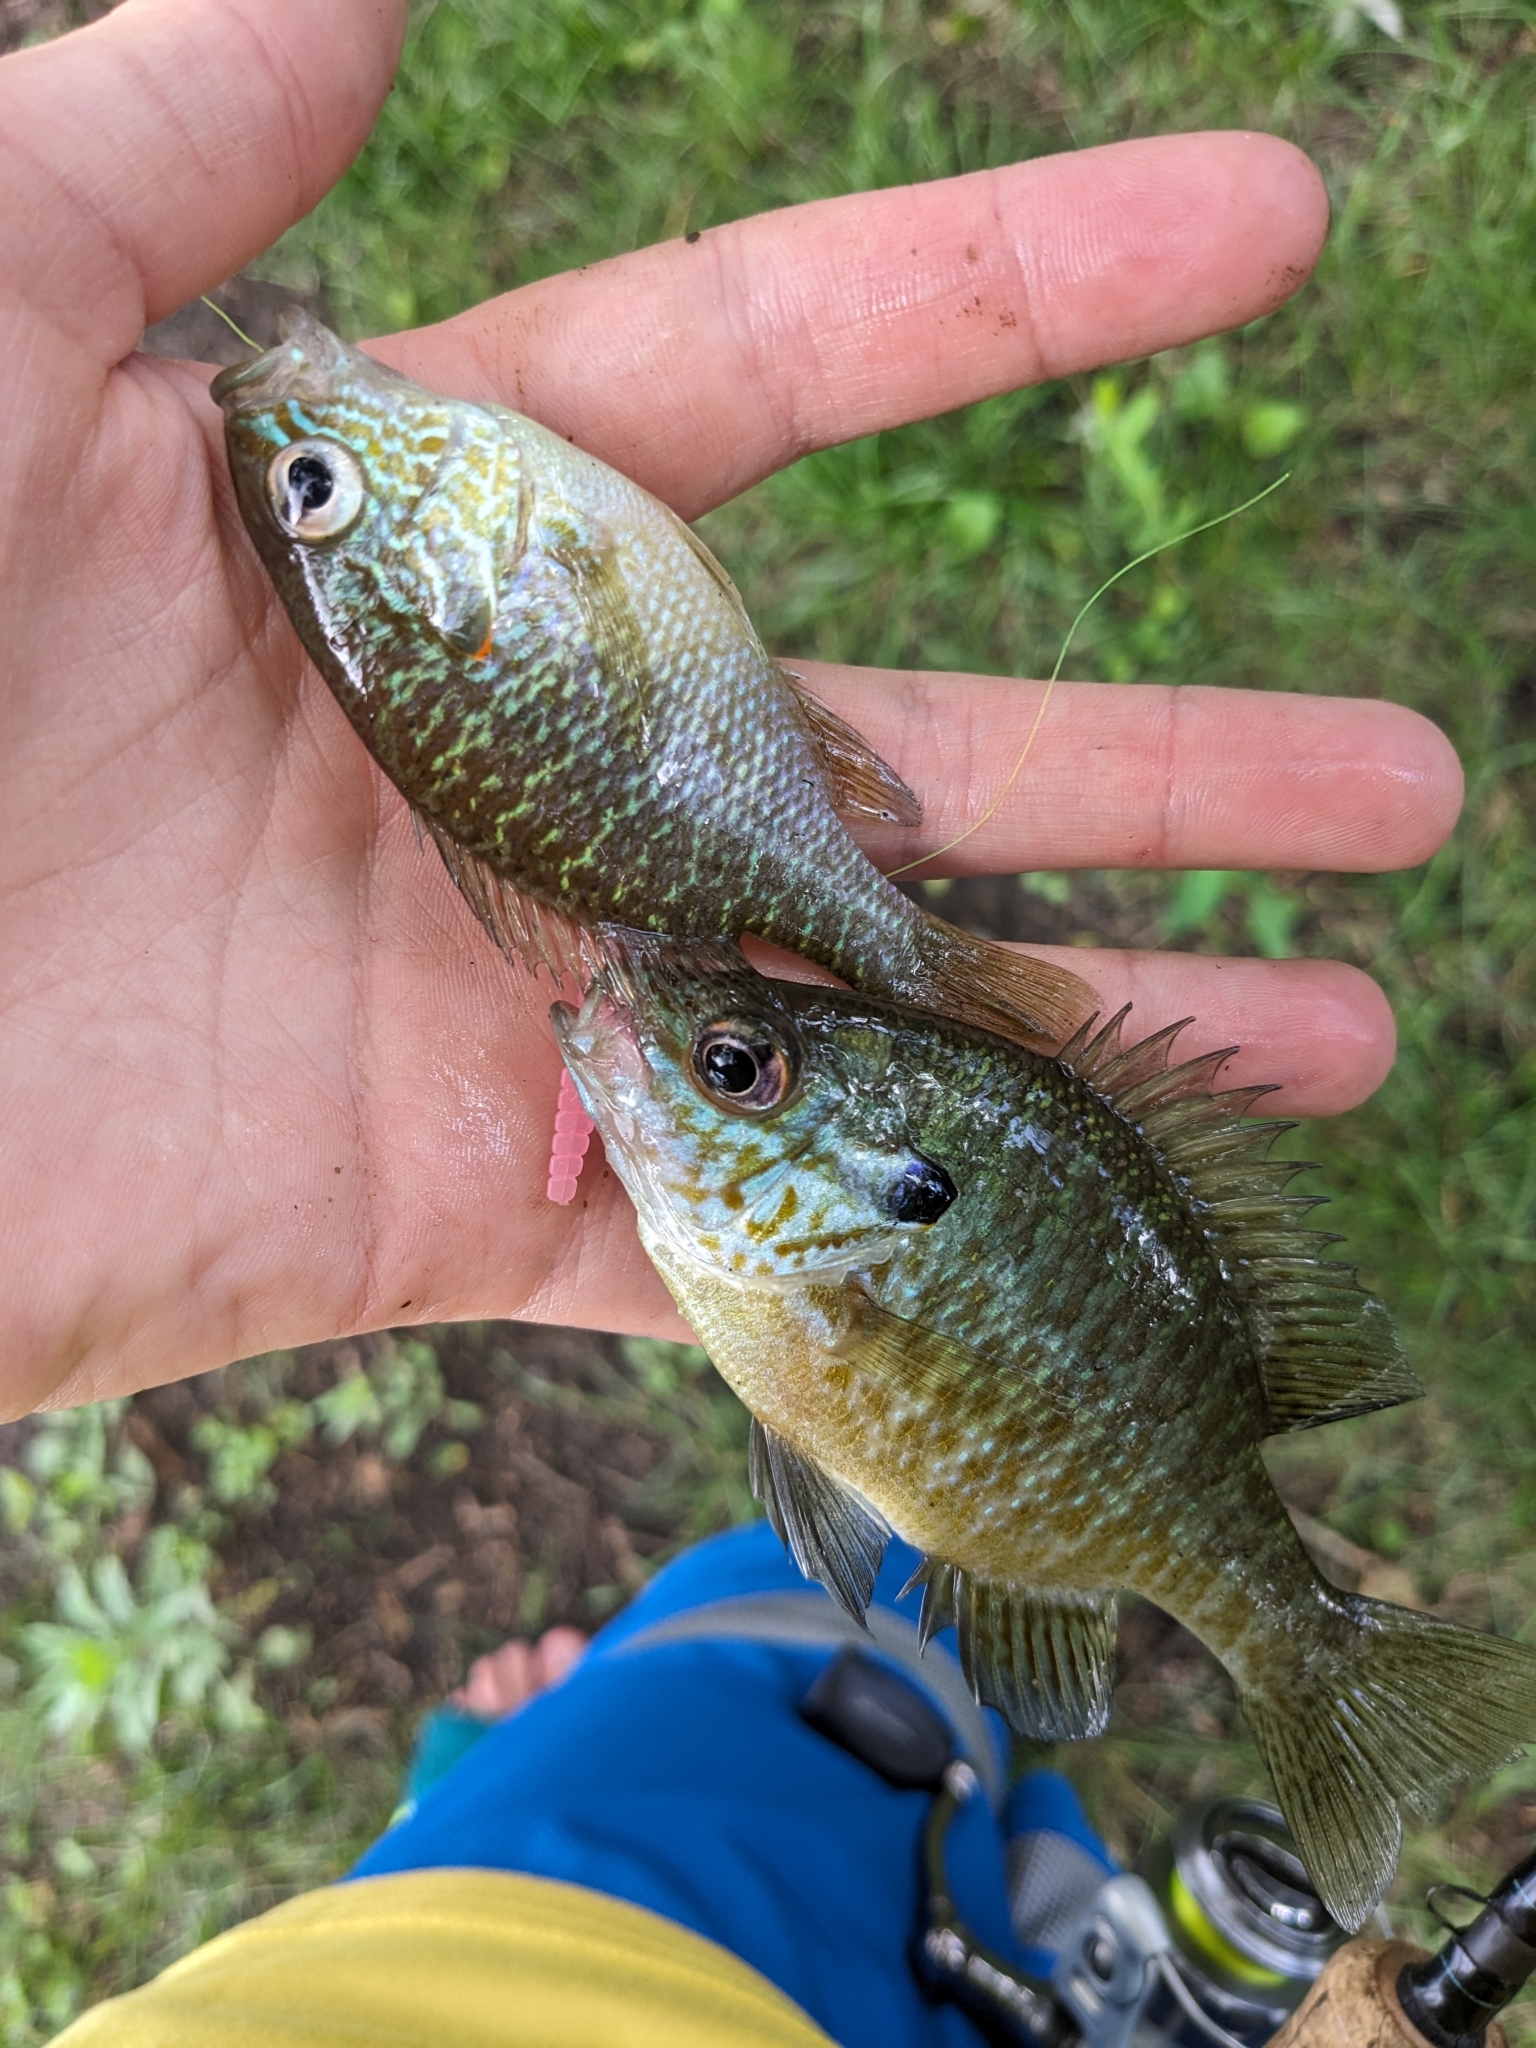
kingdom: Animalia
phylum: Chordata
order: Perciformes
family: Centrarchidae
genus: Lepomis
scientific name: Lepomis
